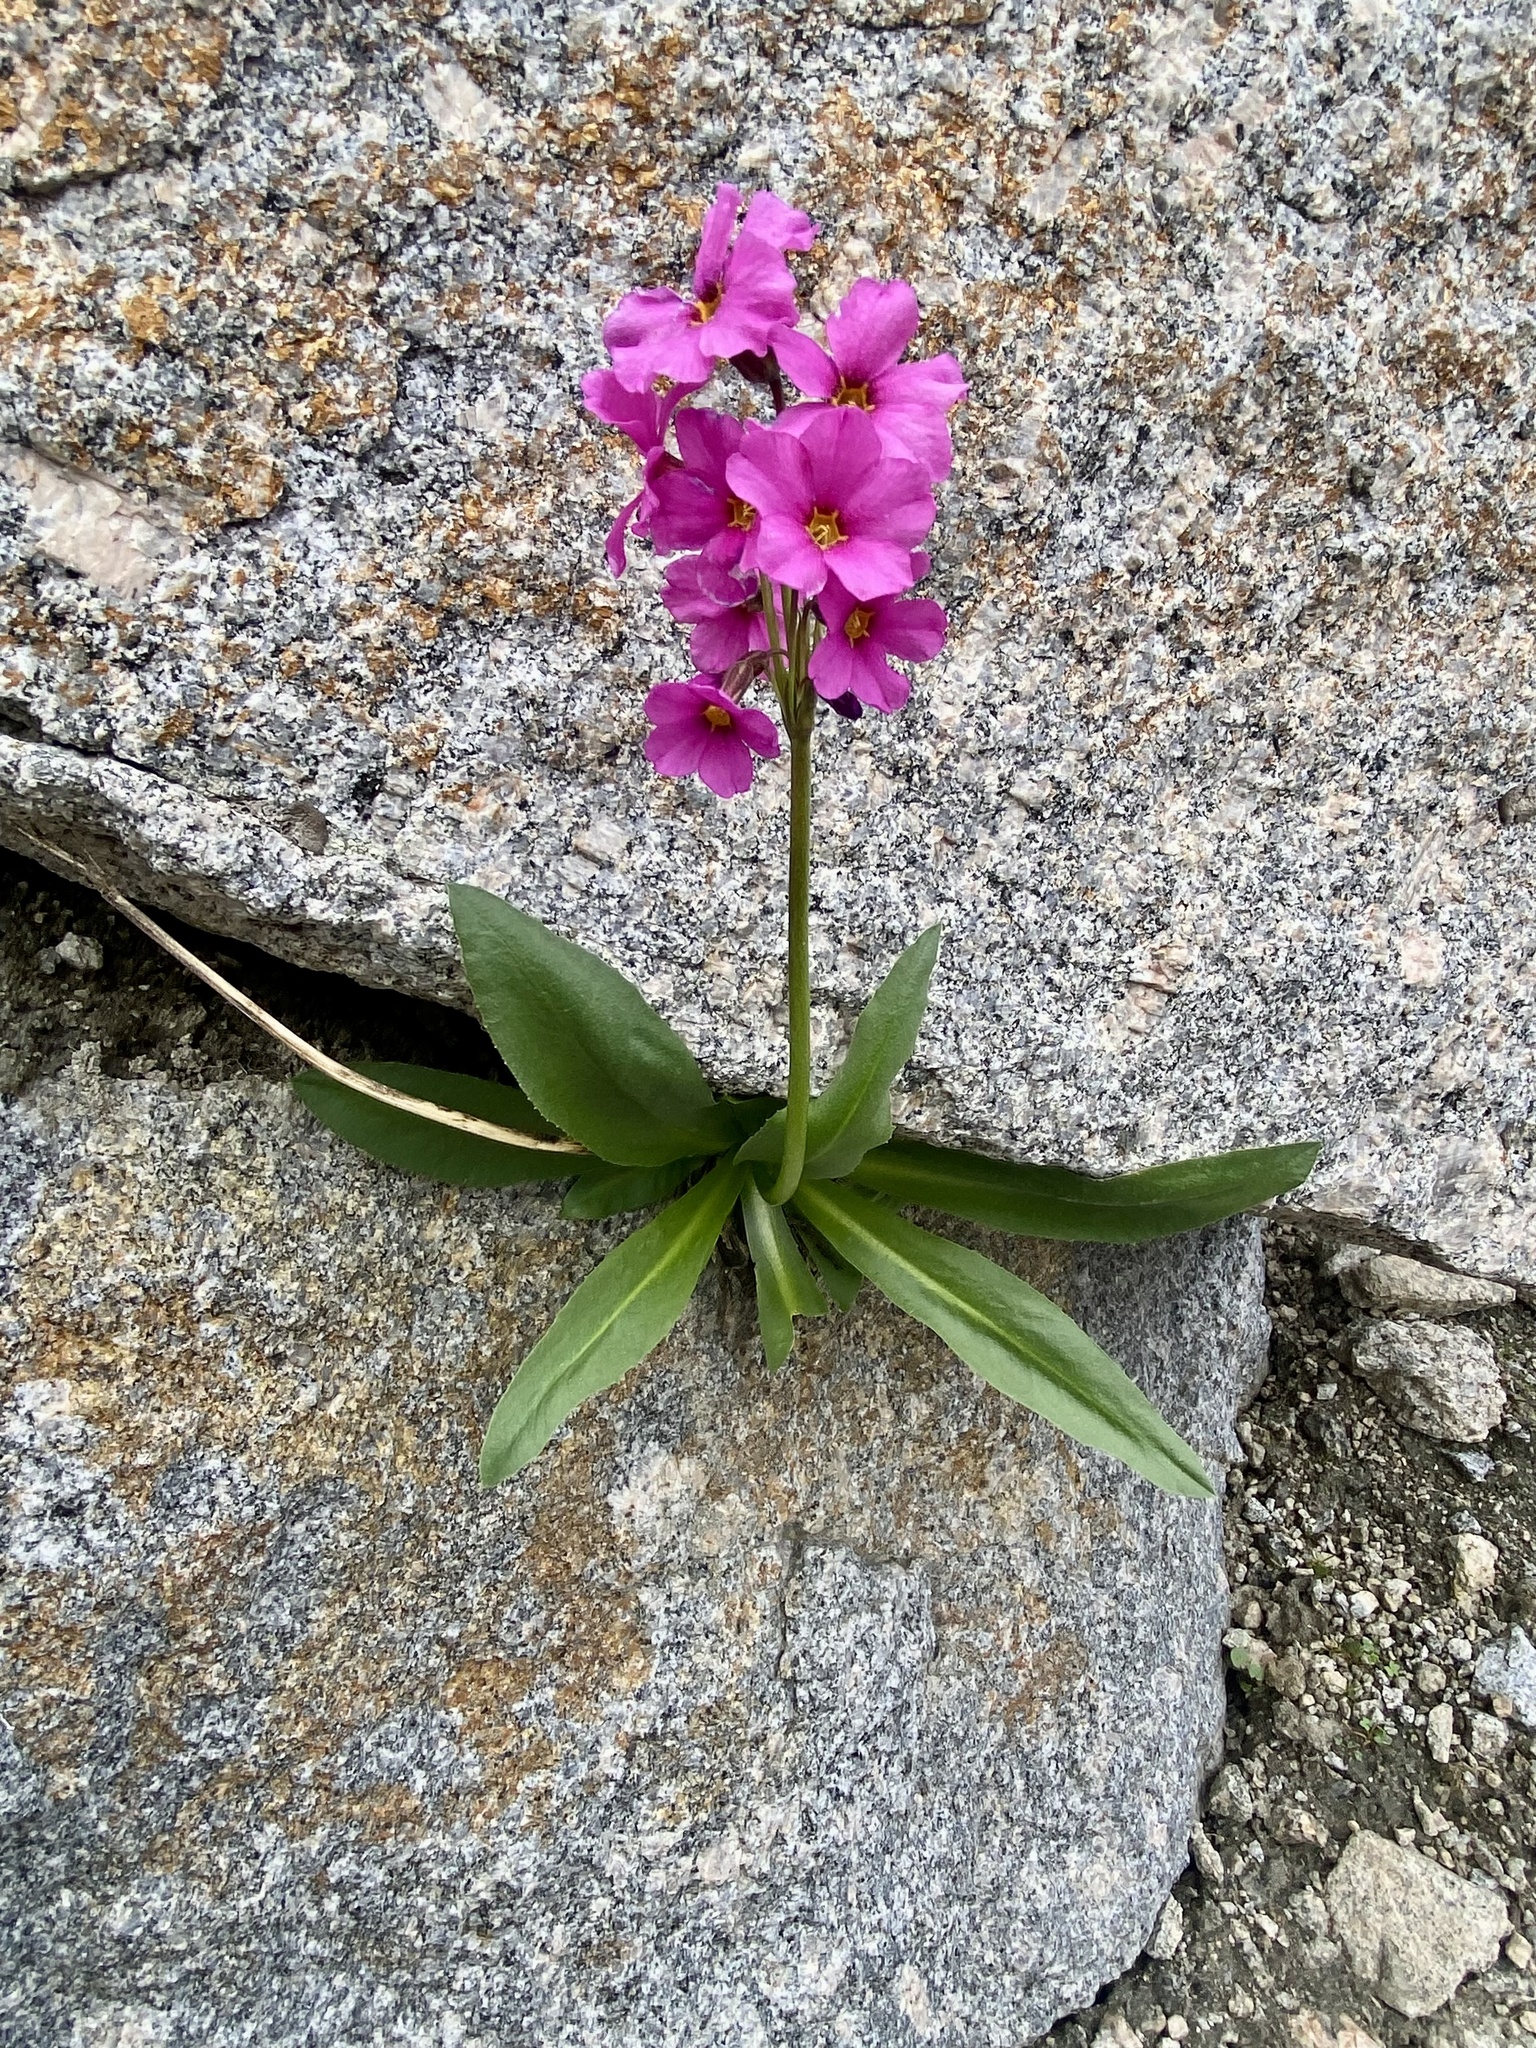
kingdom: Plantae
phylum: Tracheophyta
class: Magnoliopsida
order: Ericales
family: Primulaceae
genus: Primula
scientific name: Primula parryi
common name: Parry's primrose
